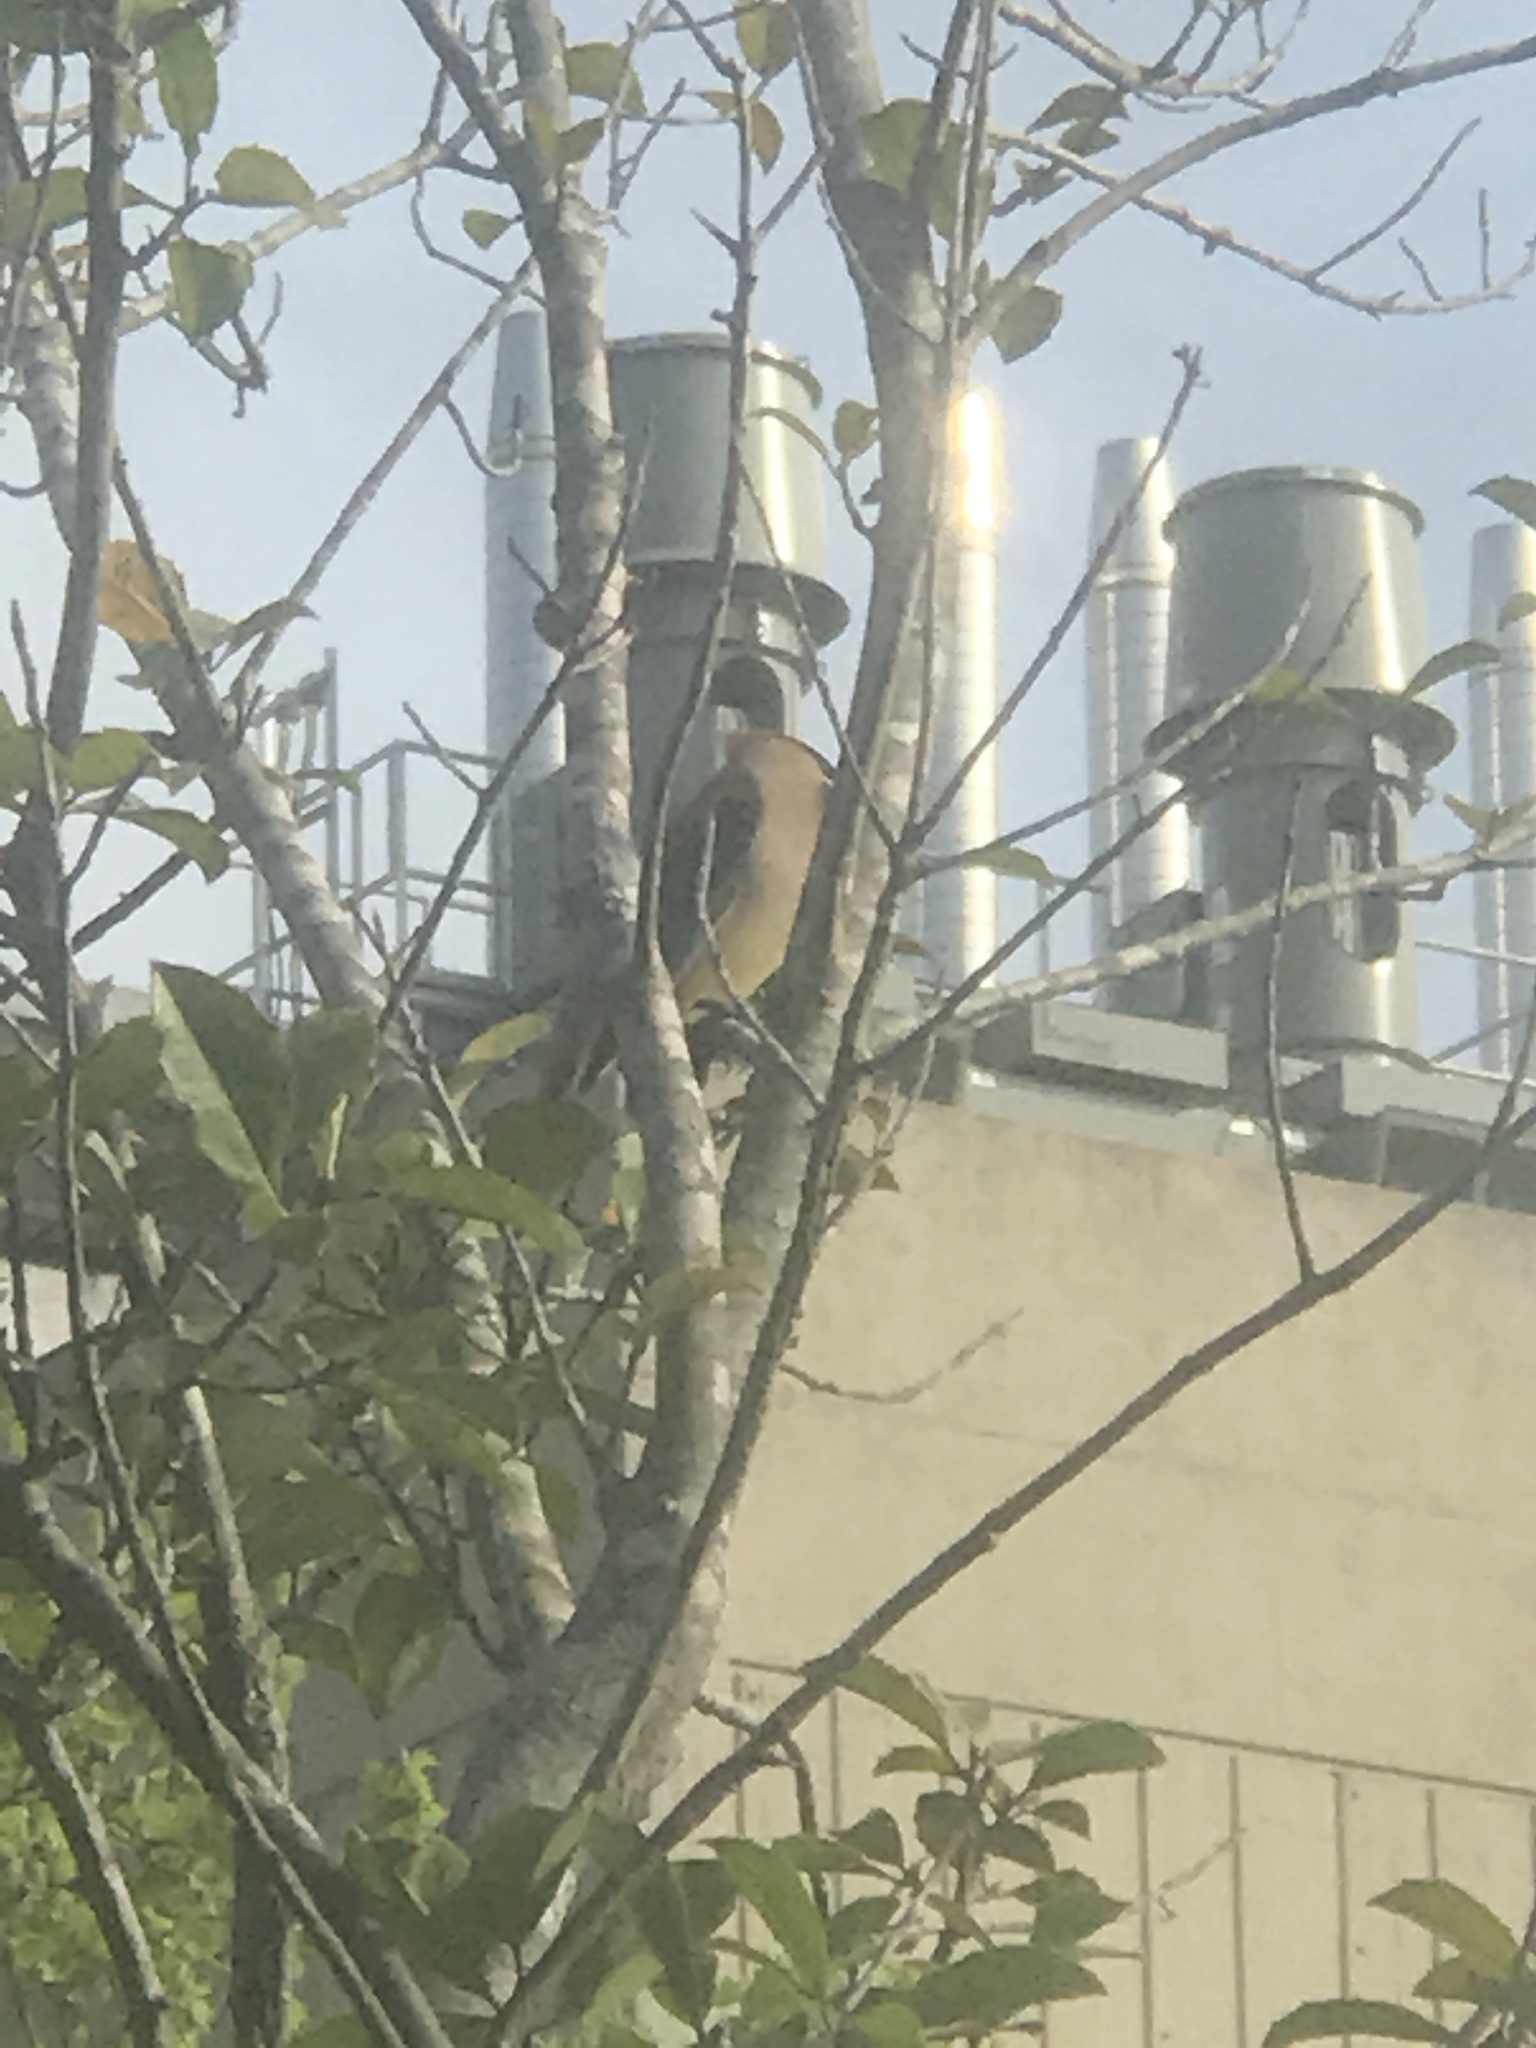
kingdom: Animalia
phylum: Chordata
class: Aves
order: Passeriformes
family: Bombycillidae
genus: Bombycilla
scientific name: Bombycilla cedrorum
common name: Cedar waxwing
